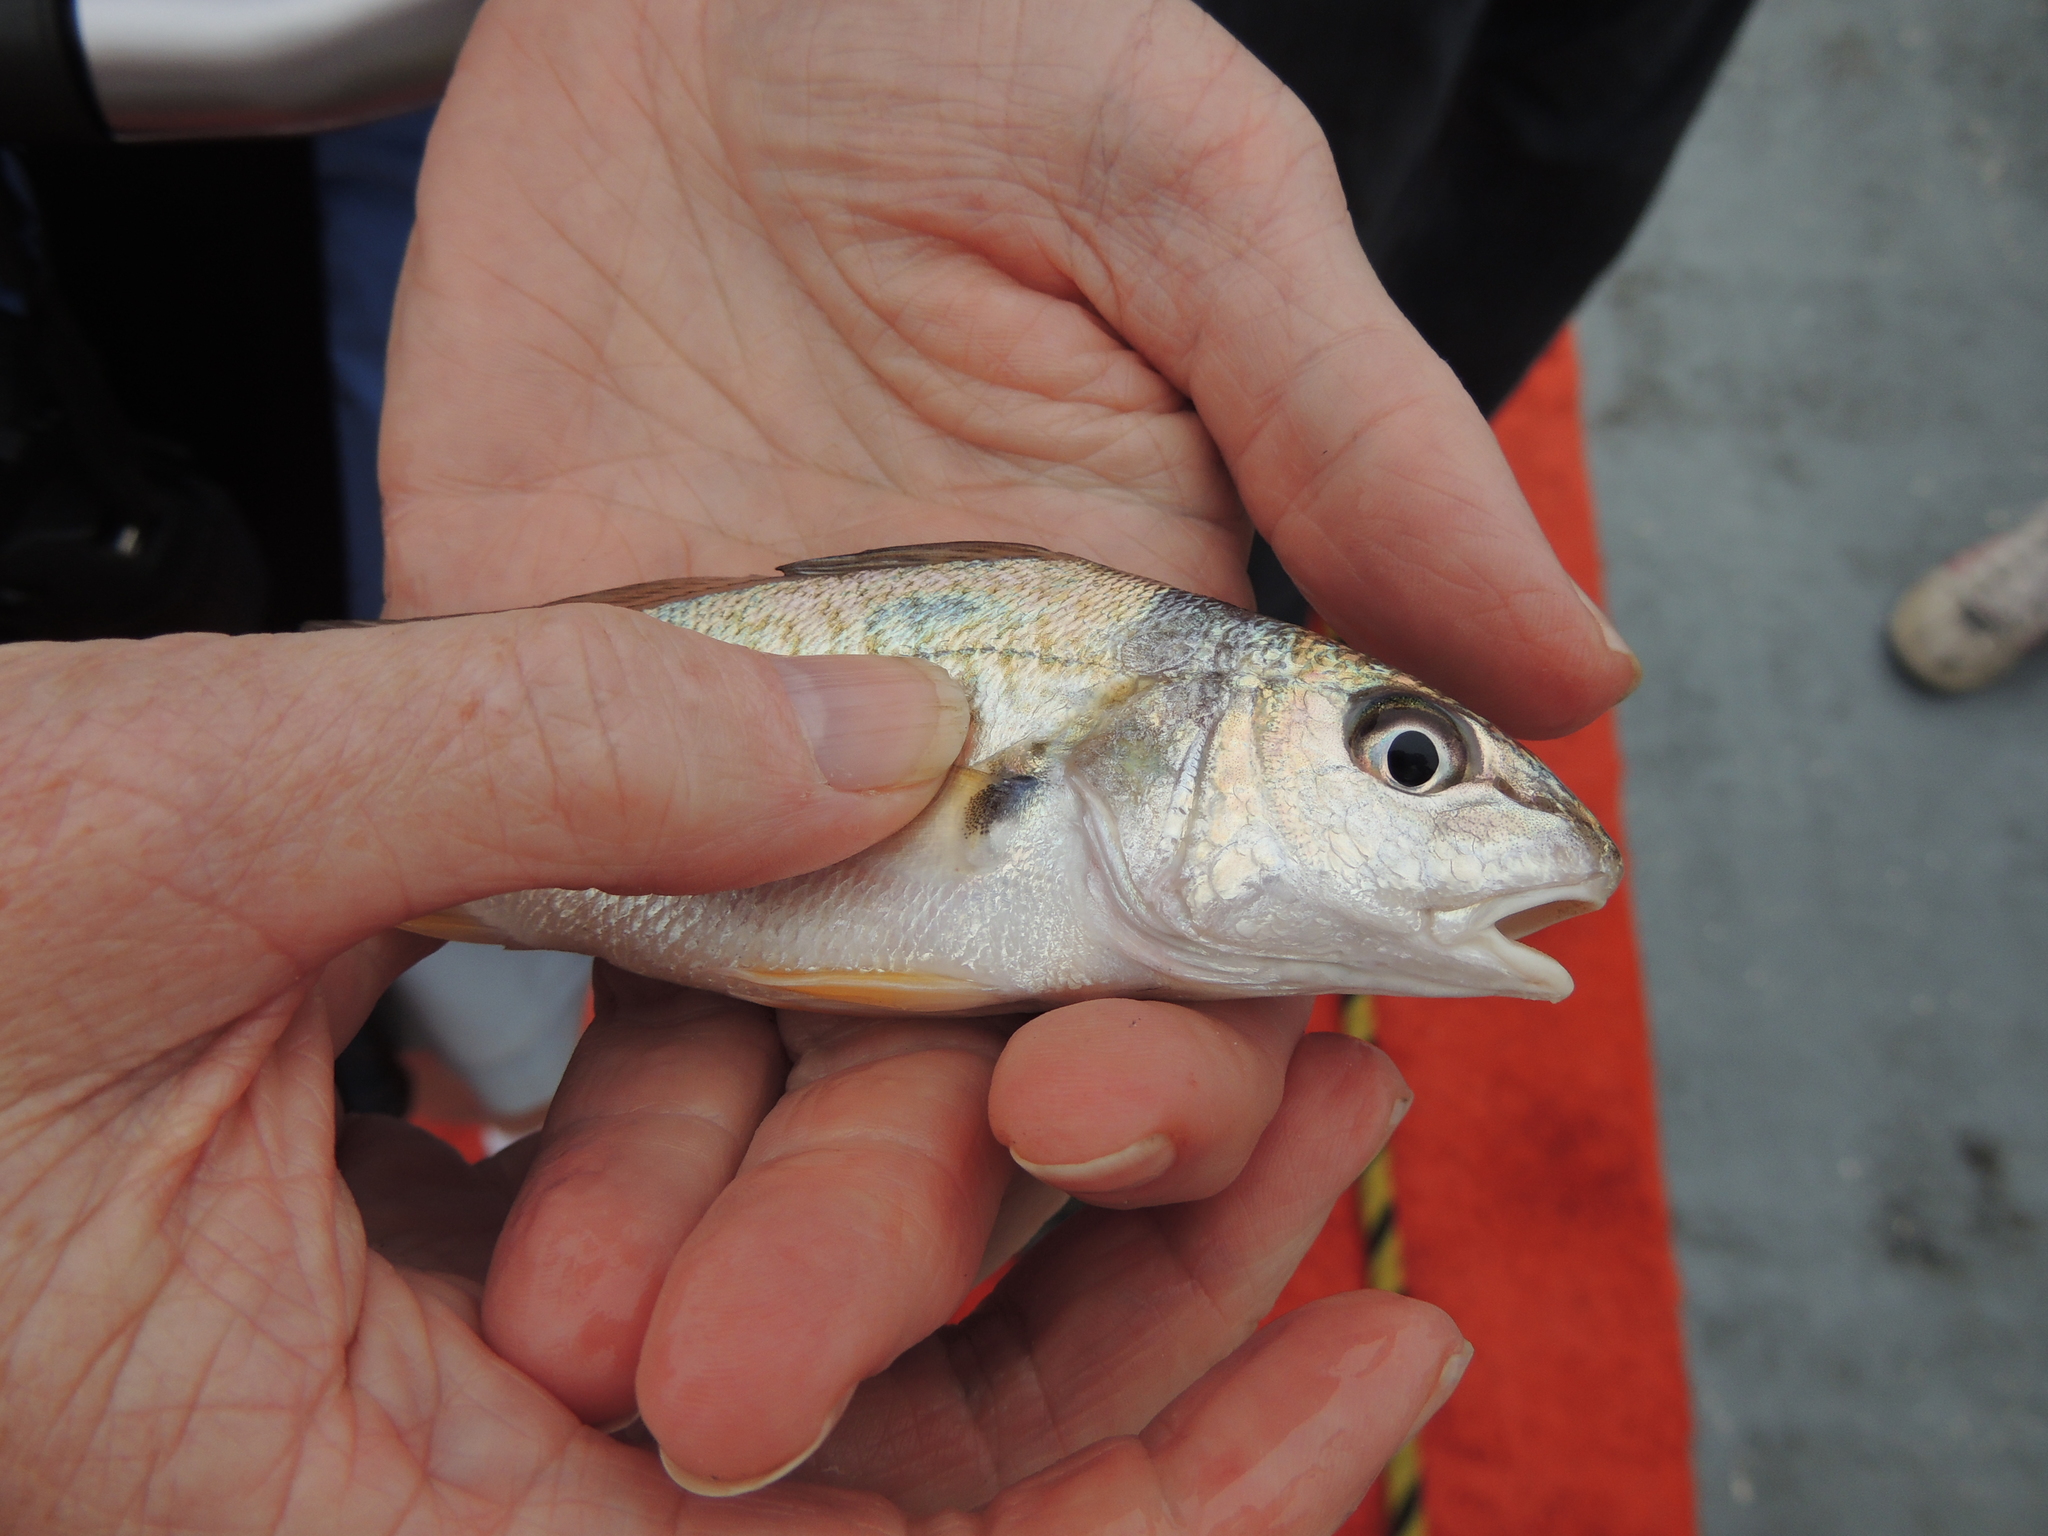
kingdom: Animalia
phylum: Chordata
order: Perciformes
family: Sciaenidae
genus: Micropogonias
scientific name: Micropogonias undulatus
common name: Atlantic croaker
